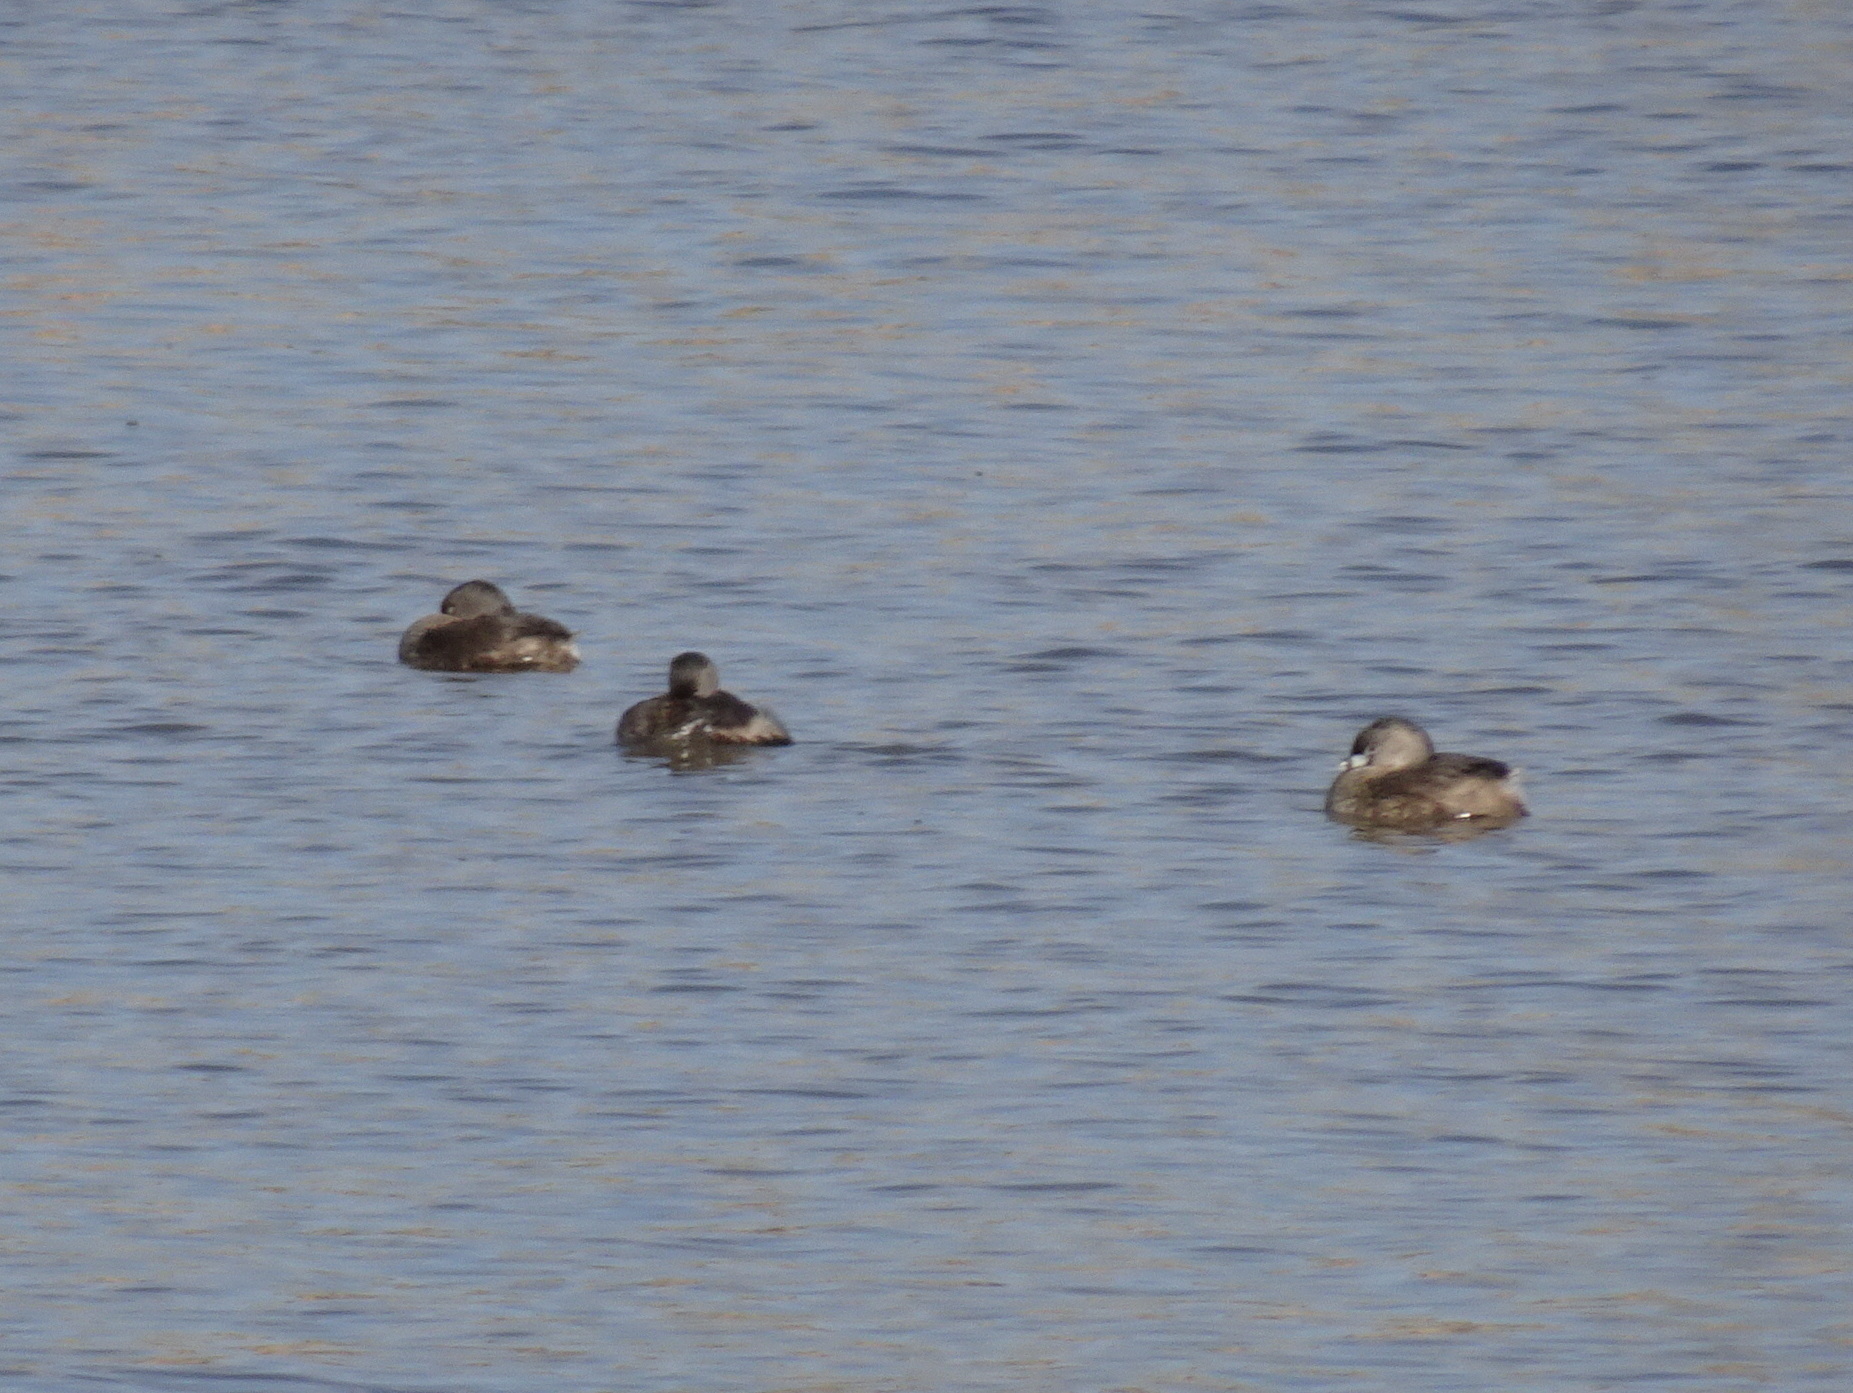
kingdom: Animalia
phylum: Chordata
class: Aves
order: Podicipediformes
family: Podicipedidae
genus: Podilymbus
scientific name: Podilymbus podiceps
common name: Pied-billed grebe
